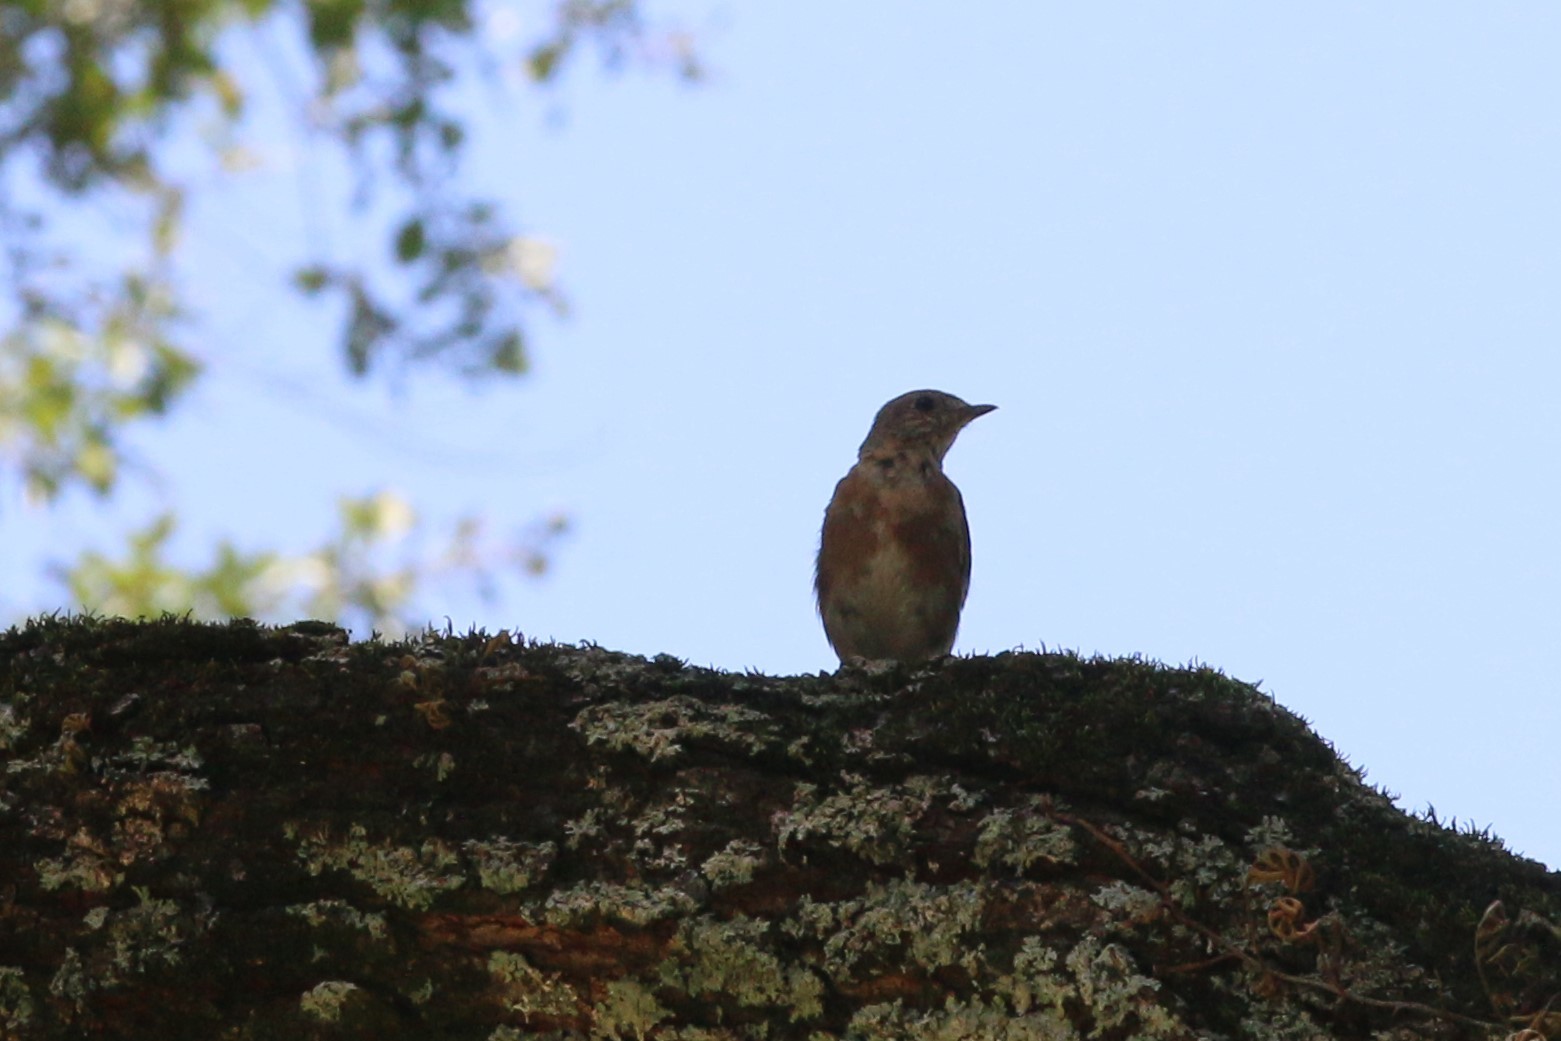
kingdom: Animalia
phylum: Chordata
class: Aves
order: Passeriformes
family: Turdidae
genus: Sialia
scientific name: Sialia sialis
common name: Eastern bluebird
